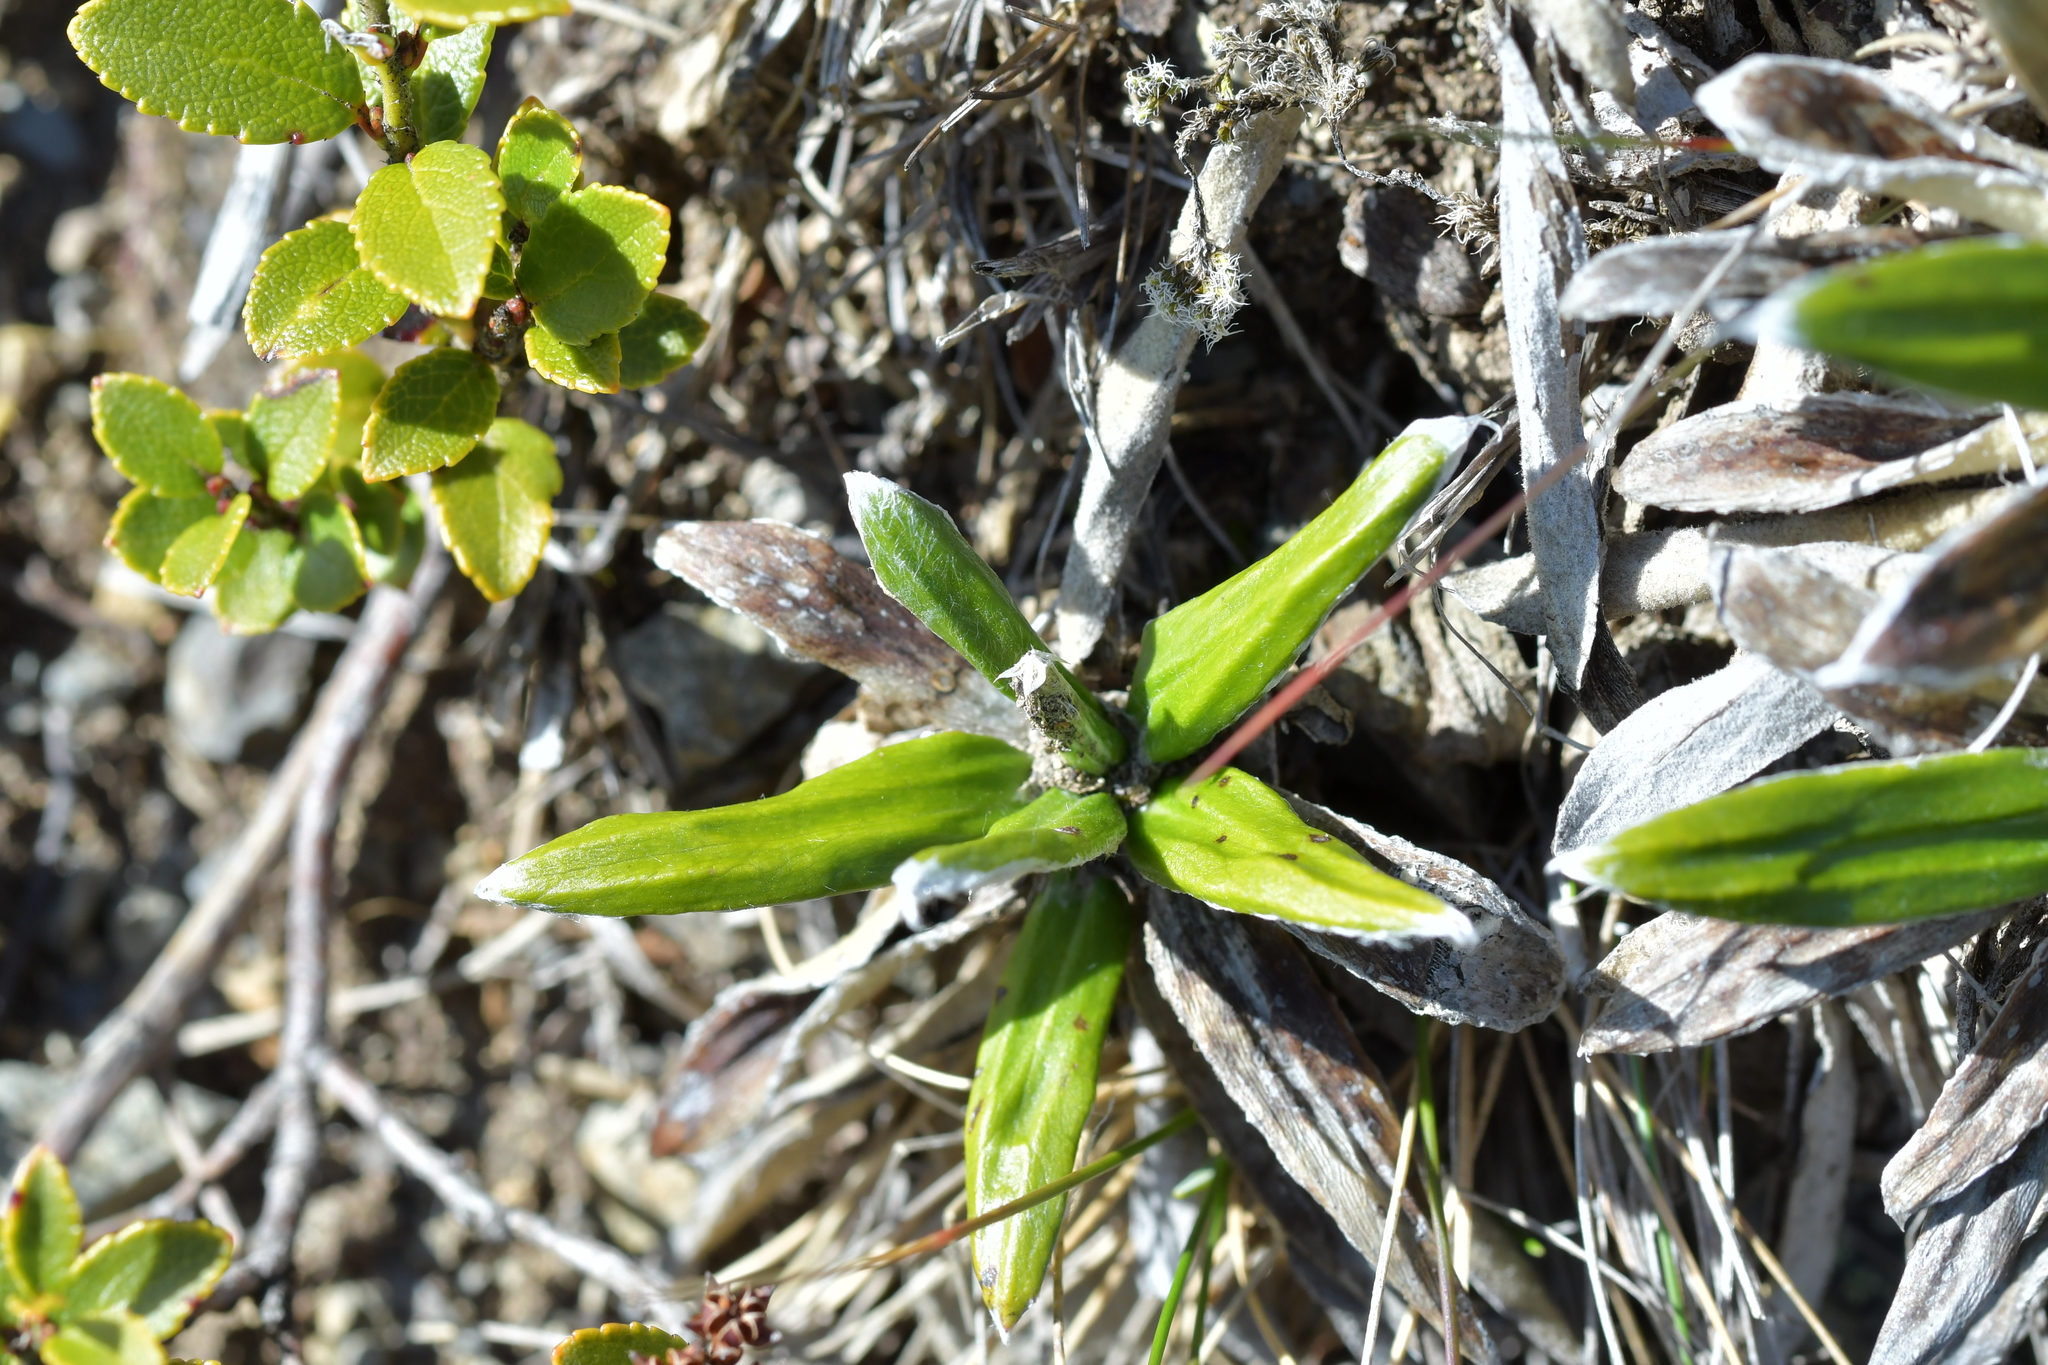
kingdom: Plantae
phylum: Tracheophyta
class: Magnoliopsida
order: Asterales
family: Asteraceae
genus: Celmisia
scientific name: Celmisia spectabilis
